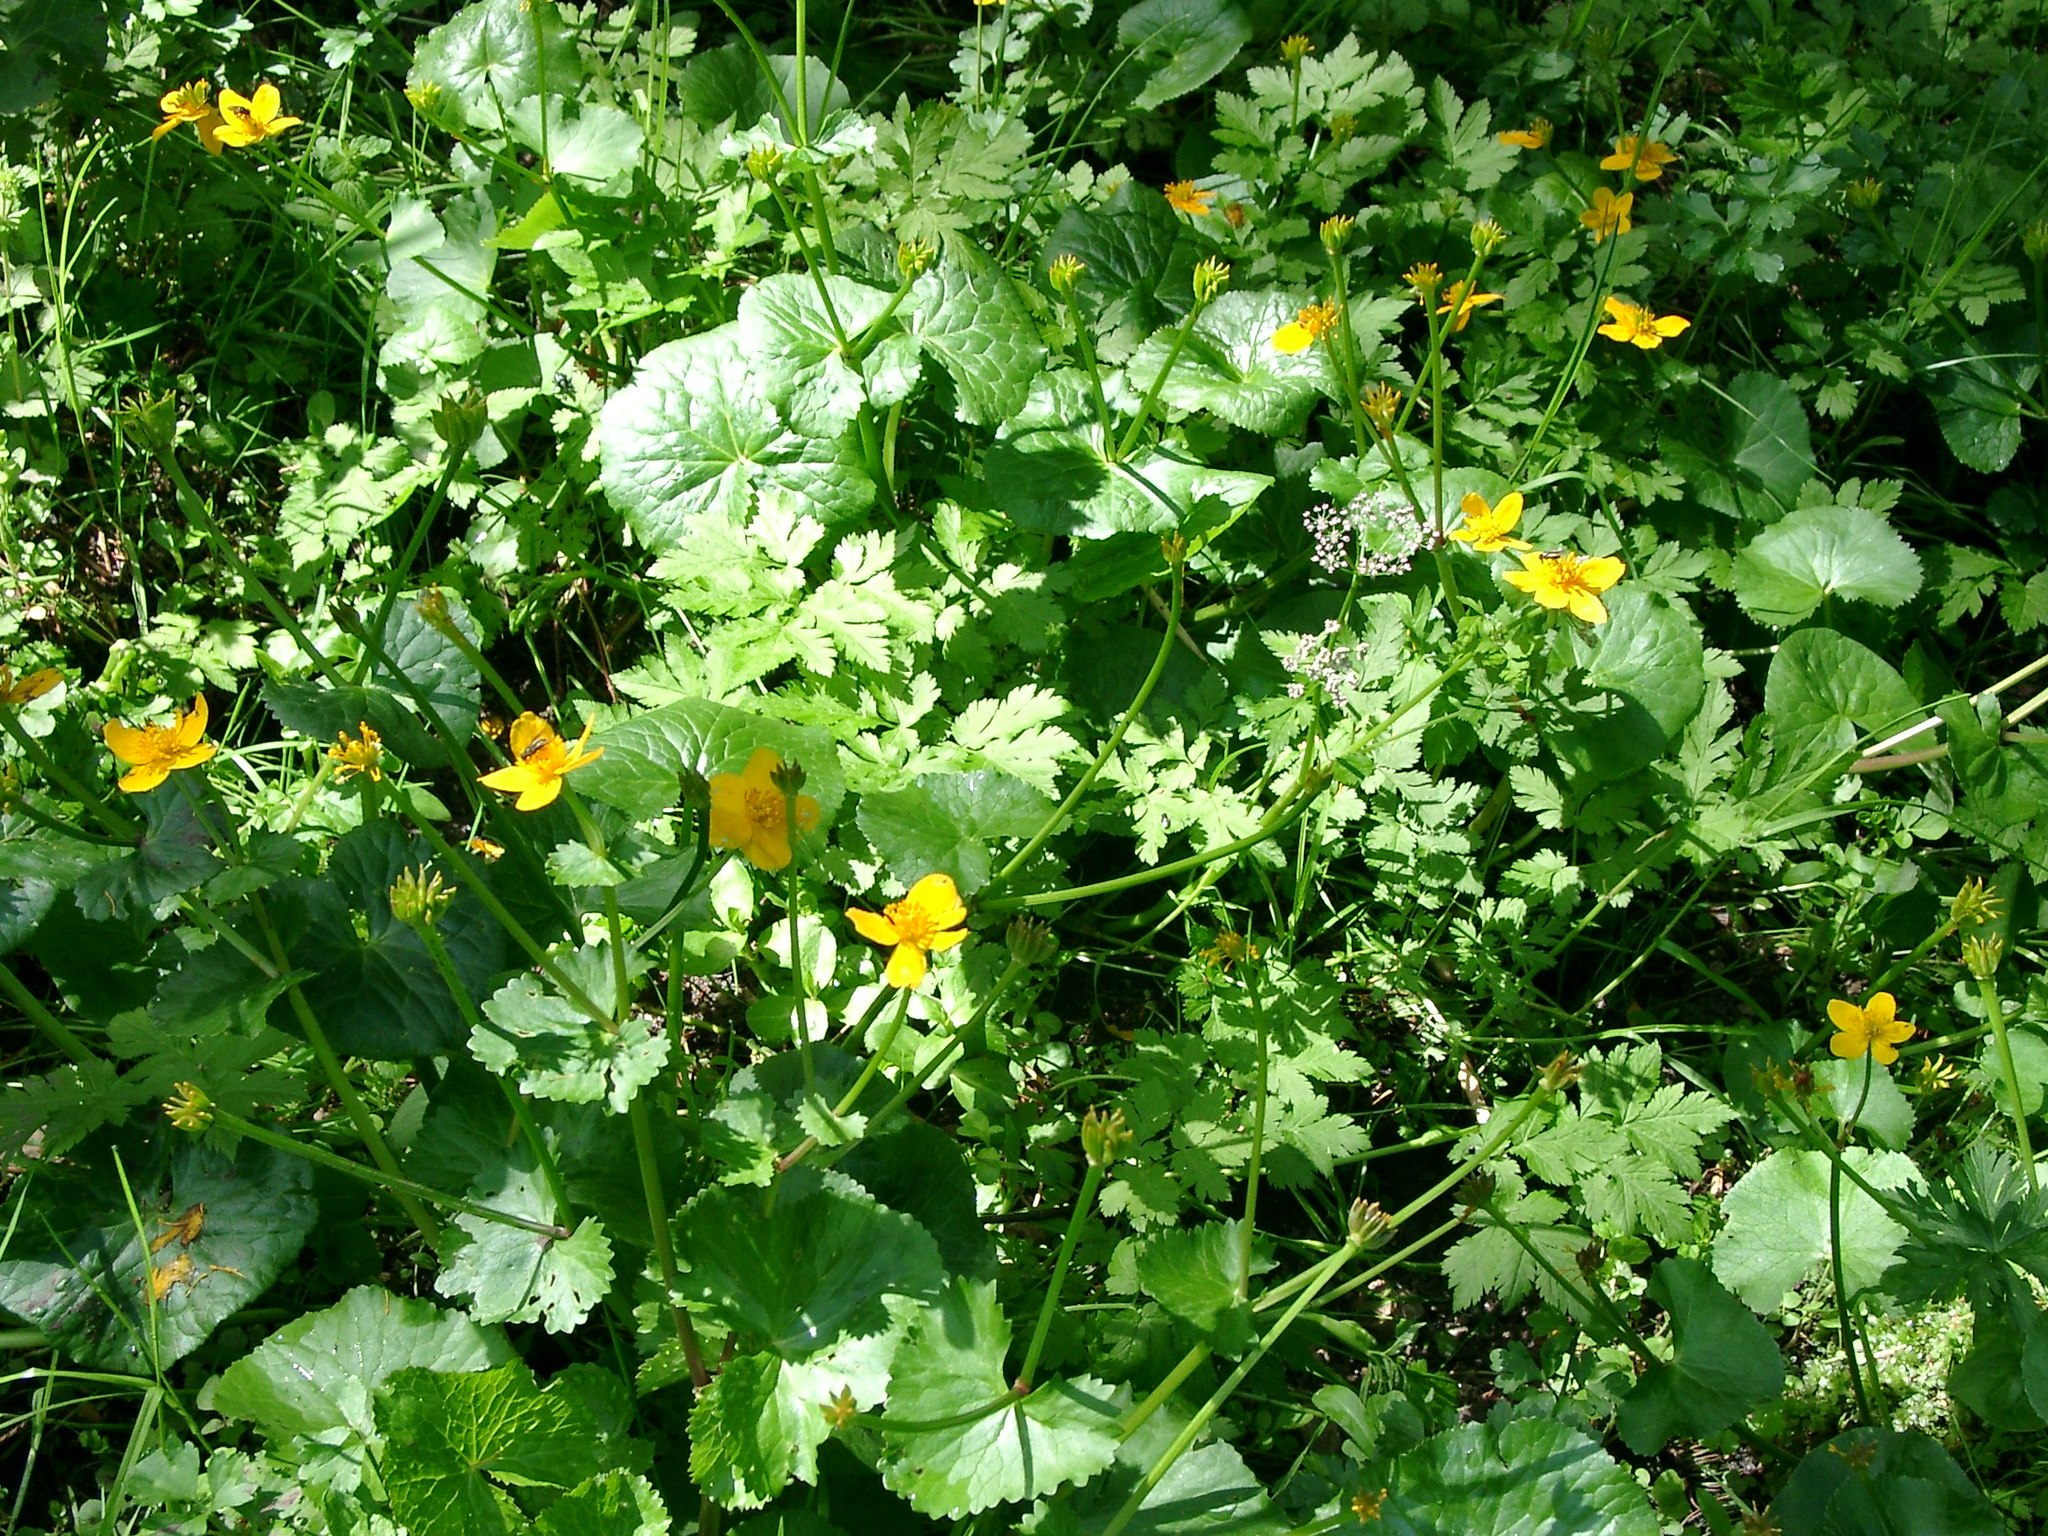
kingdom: Plantae
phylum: Tracheophyta
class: Magnoliopsida
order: Ranunculales
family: Ranunculaceae
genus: Caltha
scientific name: Caltha palustris
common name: Marsh marigold
